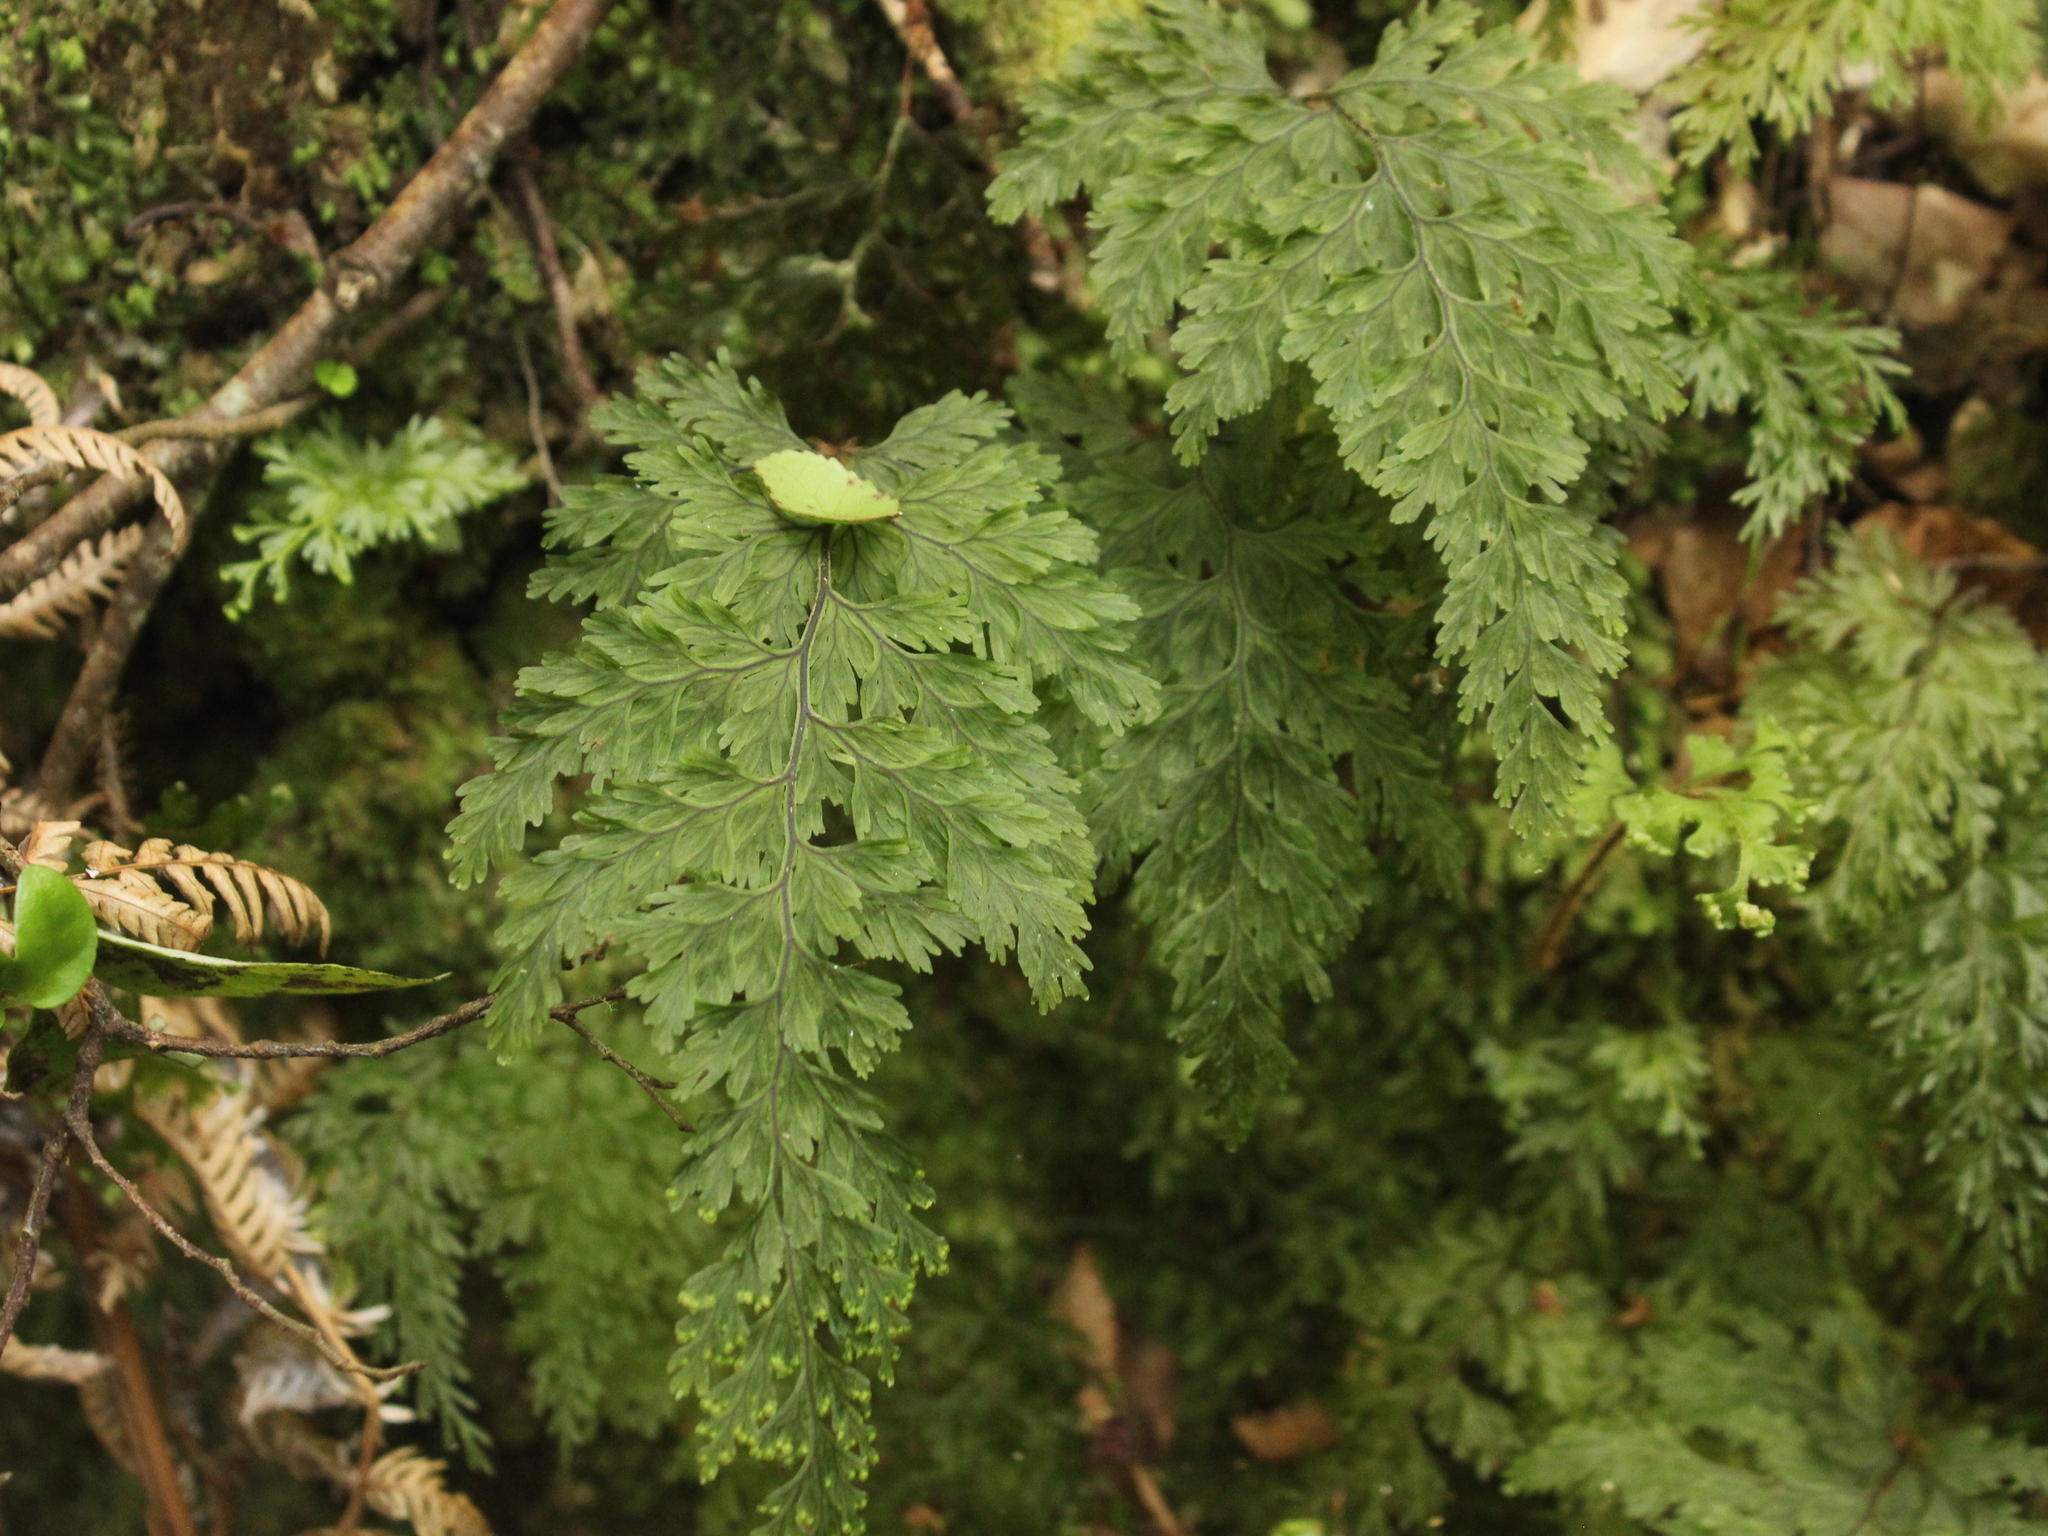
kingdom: Plantae
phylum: Tracheophyta
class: Polypodiopsida
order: Hymenophyllales
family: Hymenophyllaceae
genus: Hymenophyllum
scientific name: Hymenophyllum scabrum
